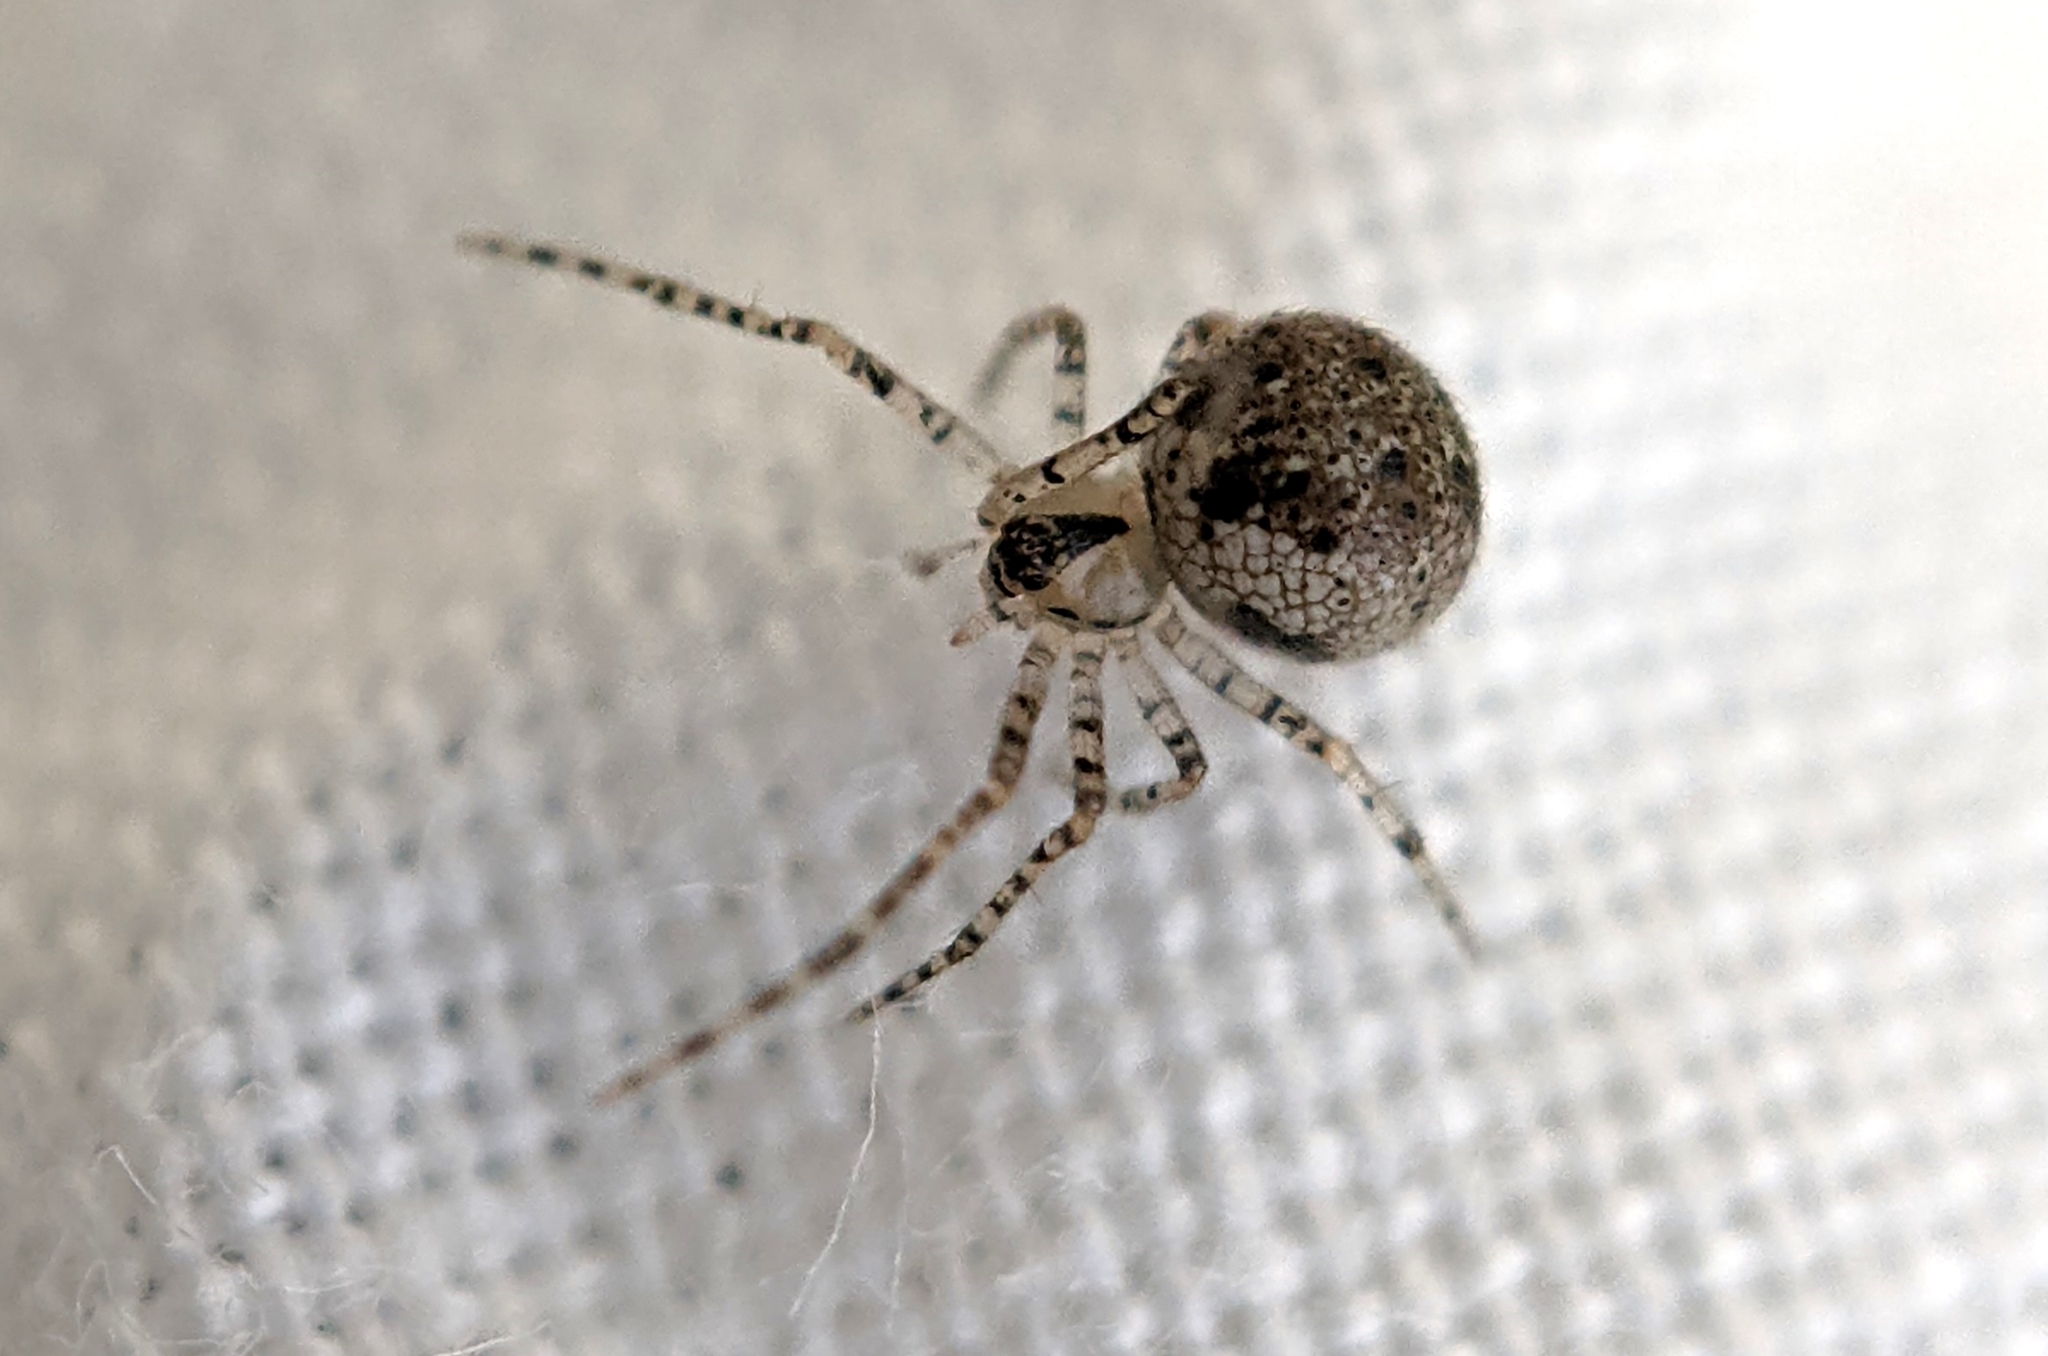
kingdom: Animalia
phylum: Arthropoda
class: Arachnida
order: Araneae
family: Theridiidae
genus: Platnickina
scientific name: Platnickina tincta
